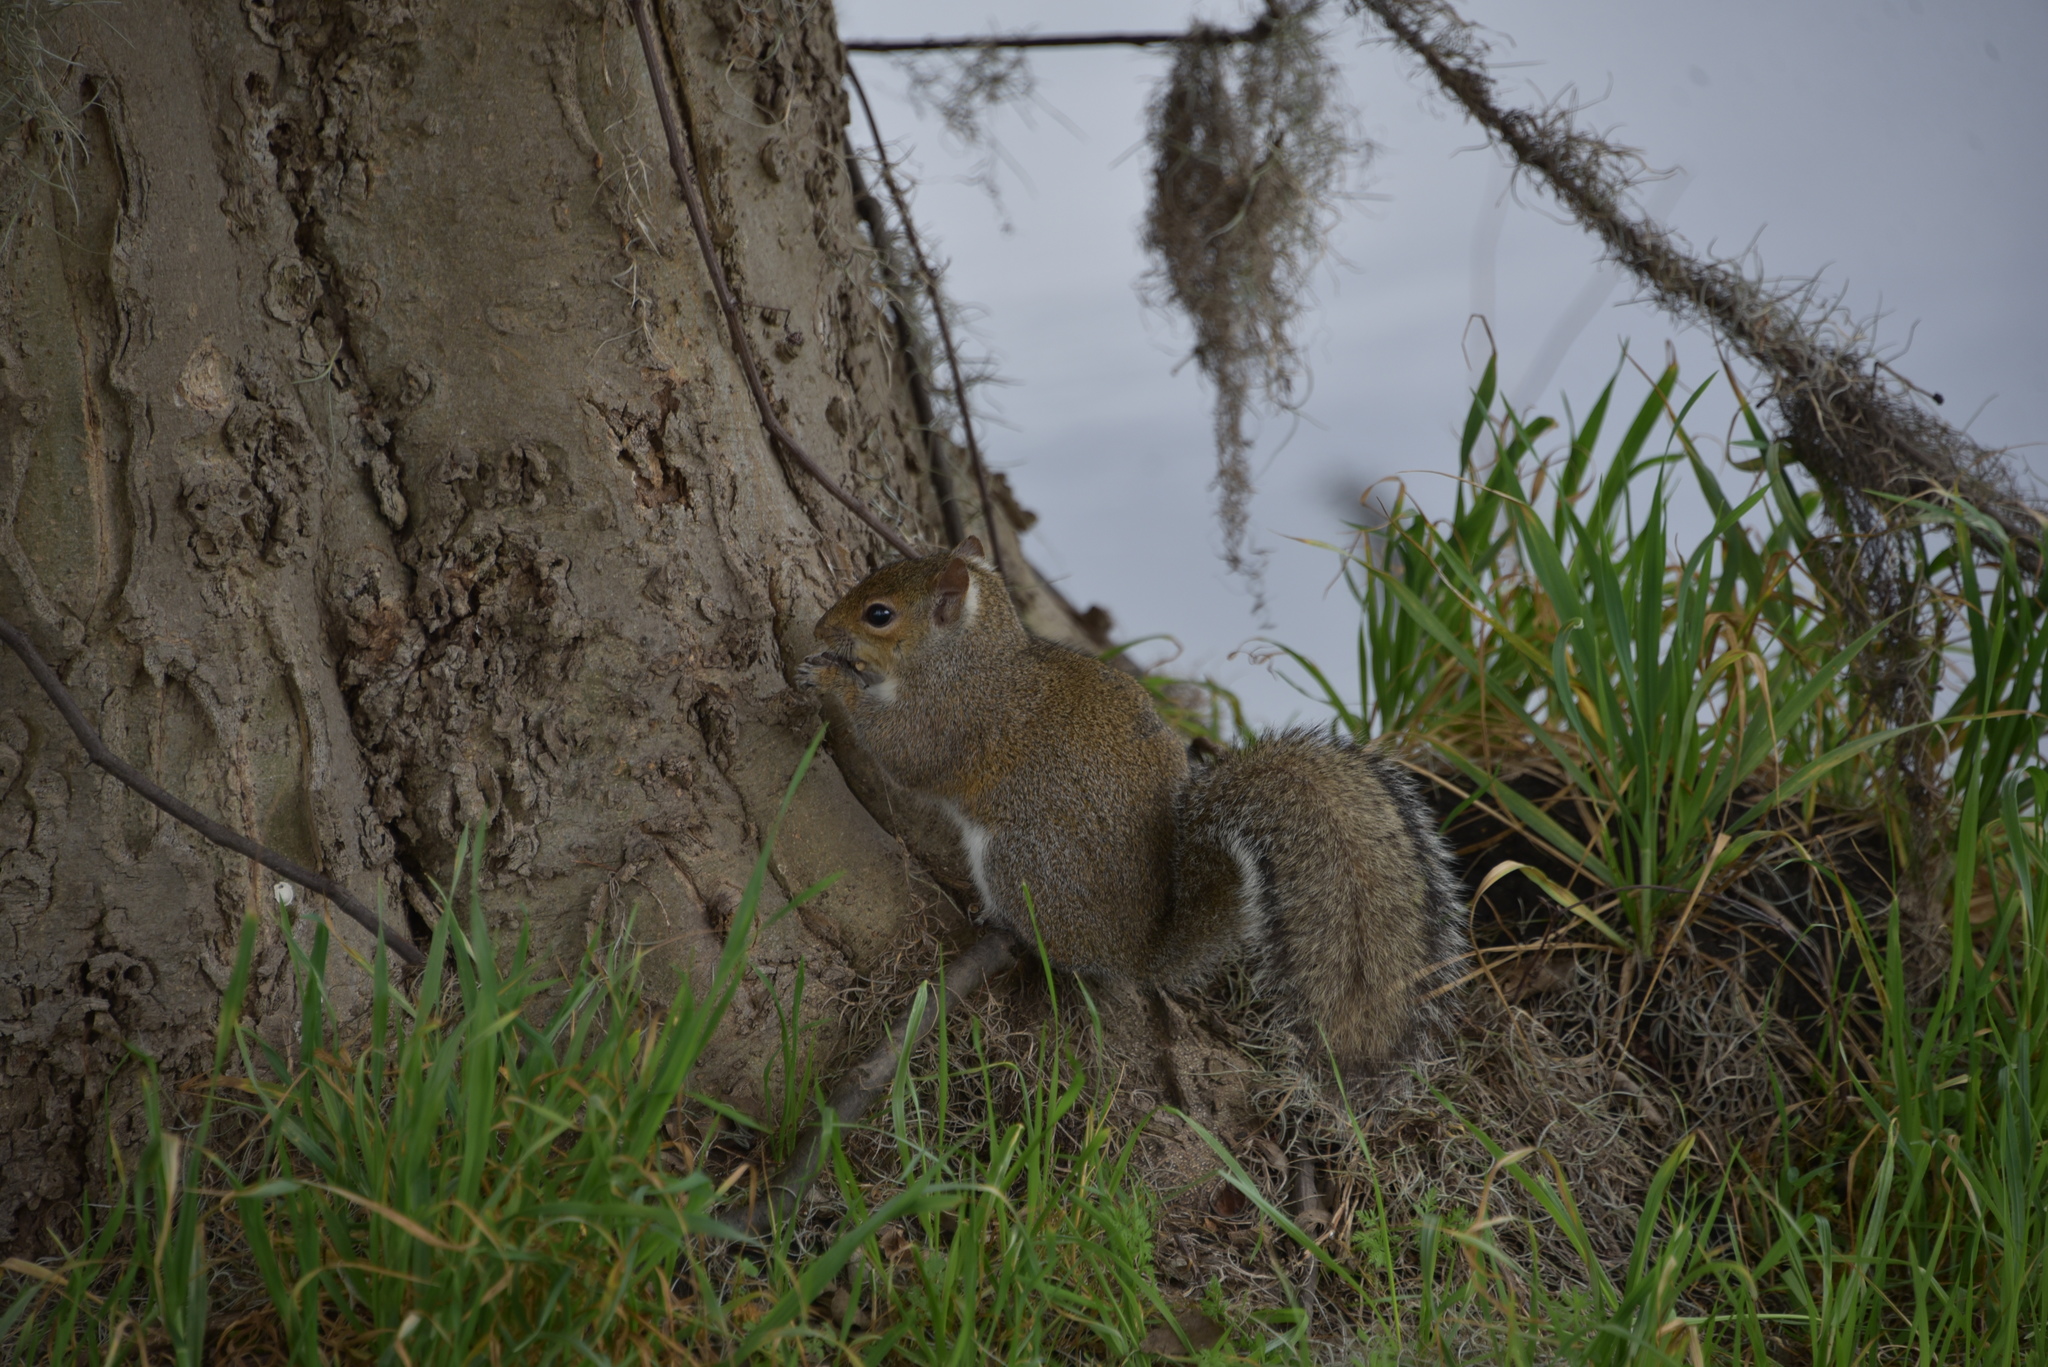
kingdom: Animalia
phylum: Chordata
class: Mammalia
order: Rodentia
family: Sciuridae
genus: Sciurus
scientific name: Sciurus carolinensis
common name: Eastern gray squirrel
